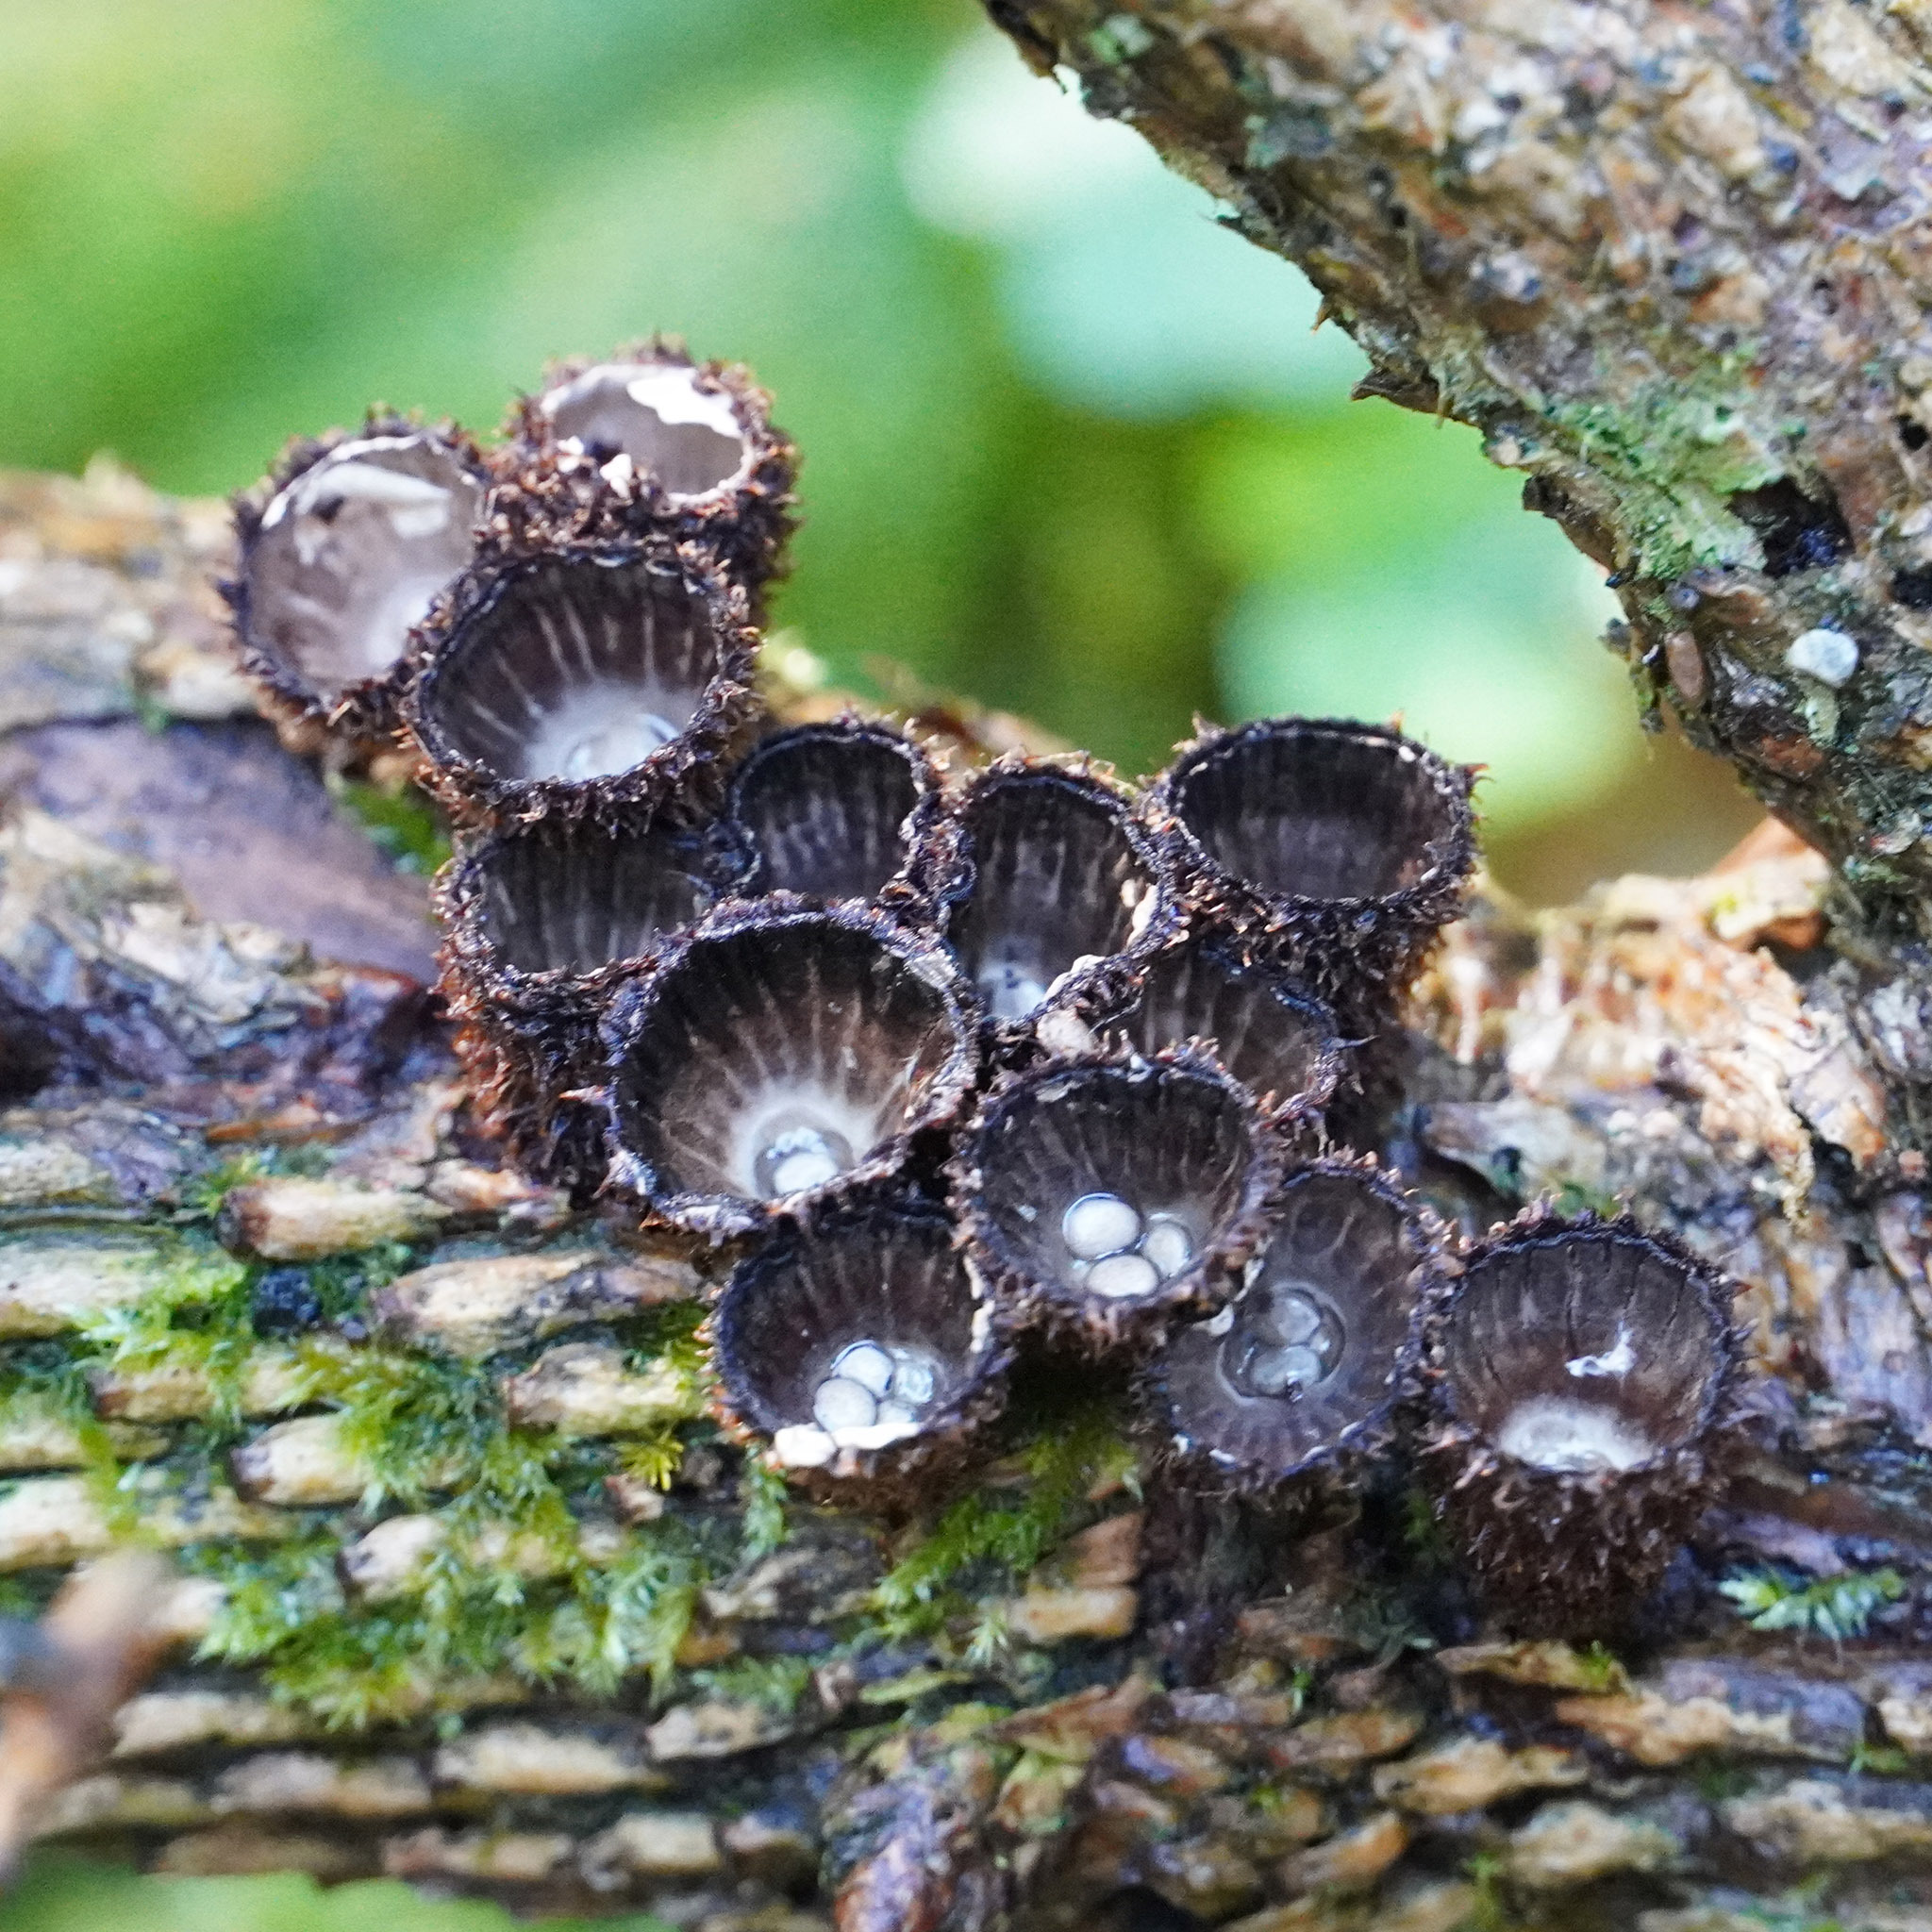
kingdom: Fungi
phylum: Basidiomycota
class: Agaricomycetes
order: Agaricales
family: Agaricaceae
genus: Cyathus
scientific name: Cyathus striatus
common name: Fluted bird's nest
